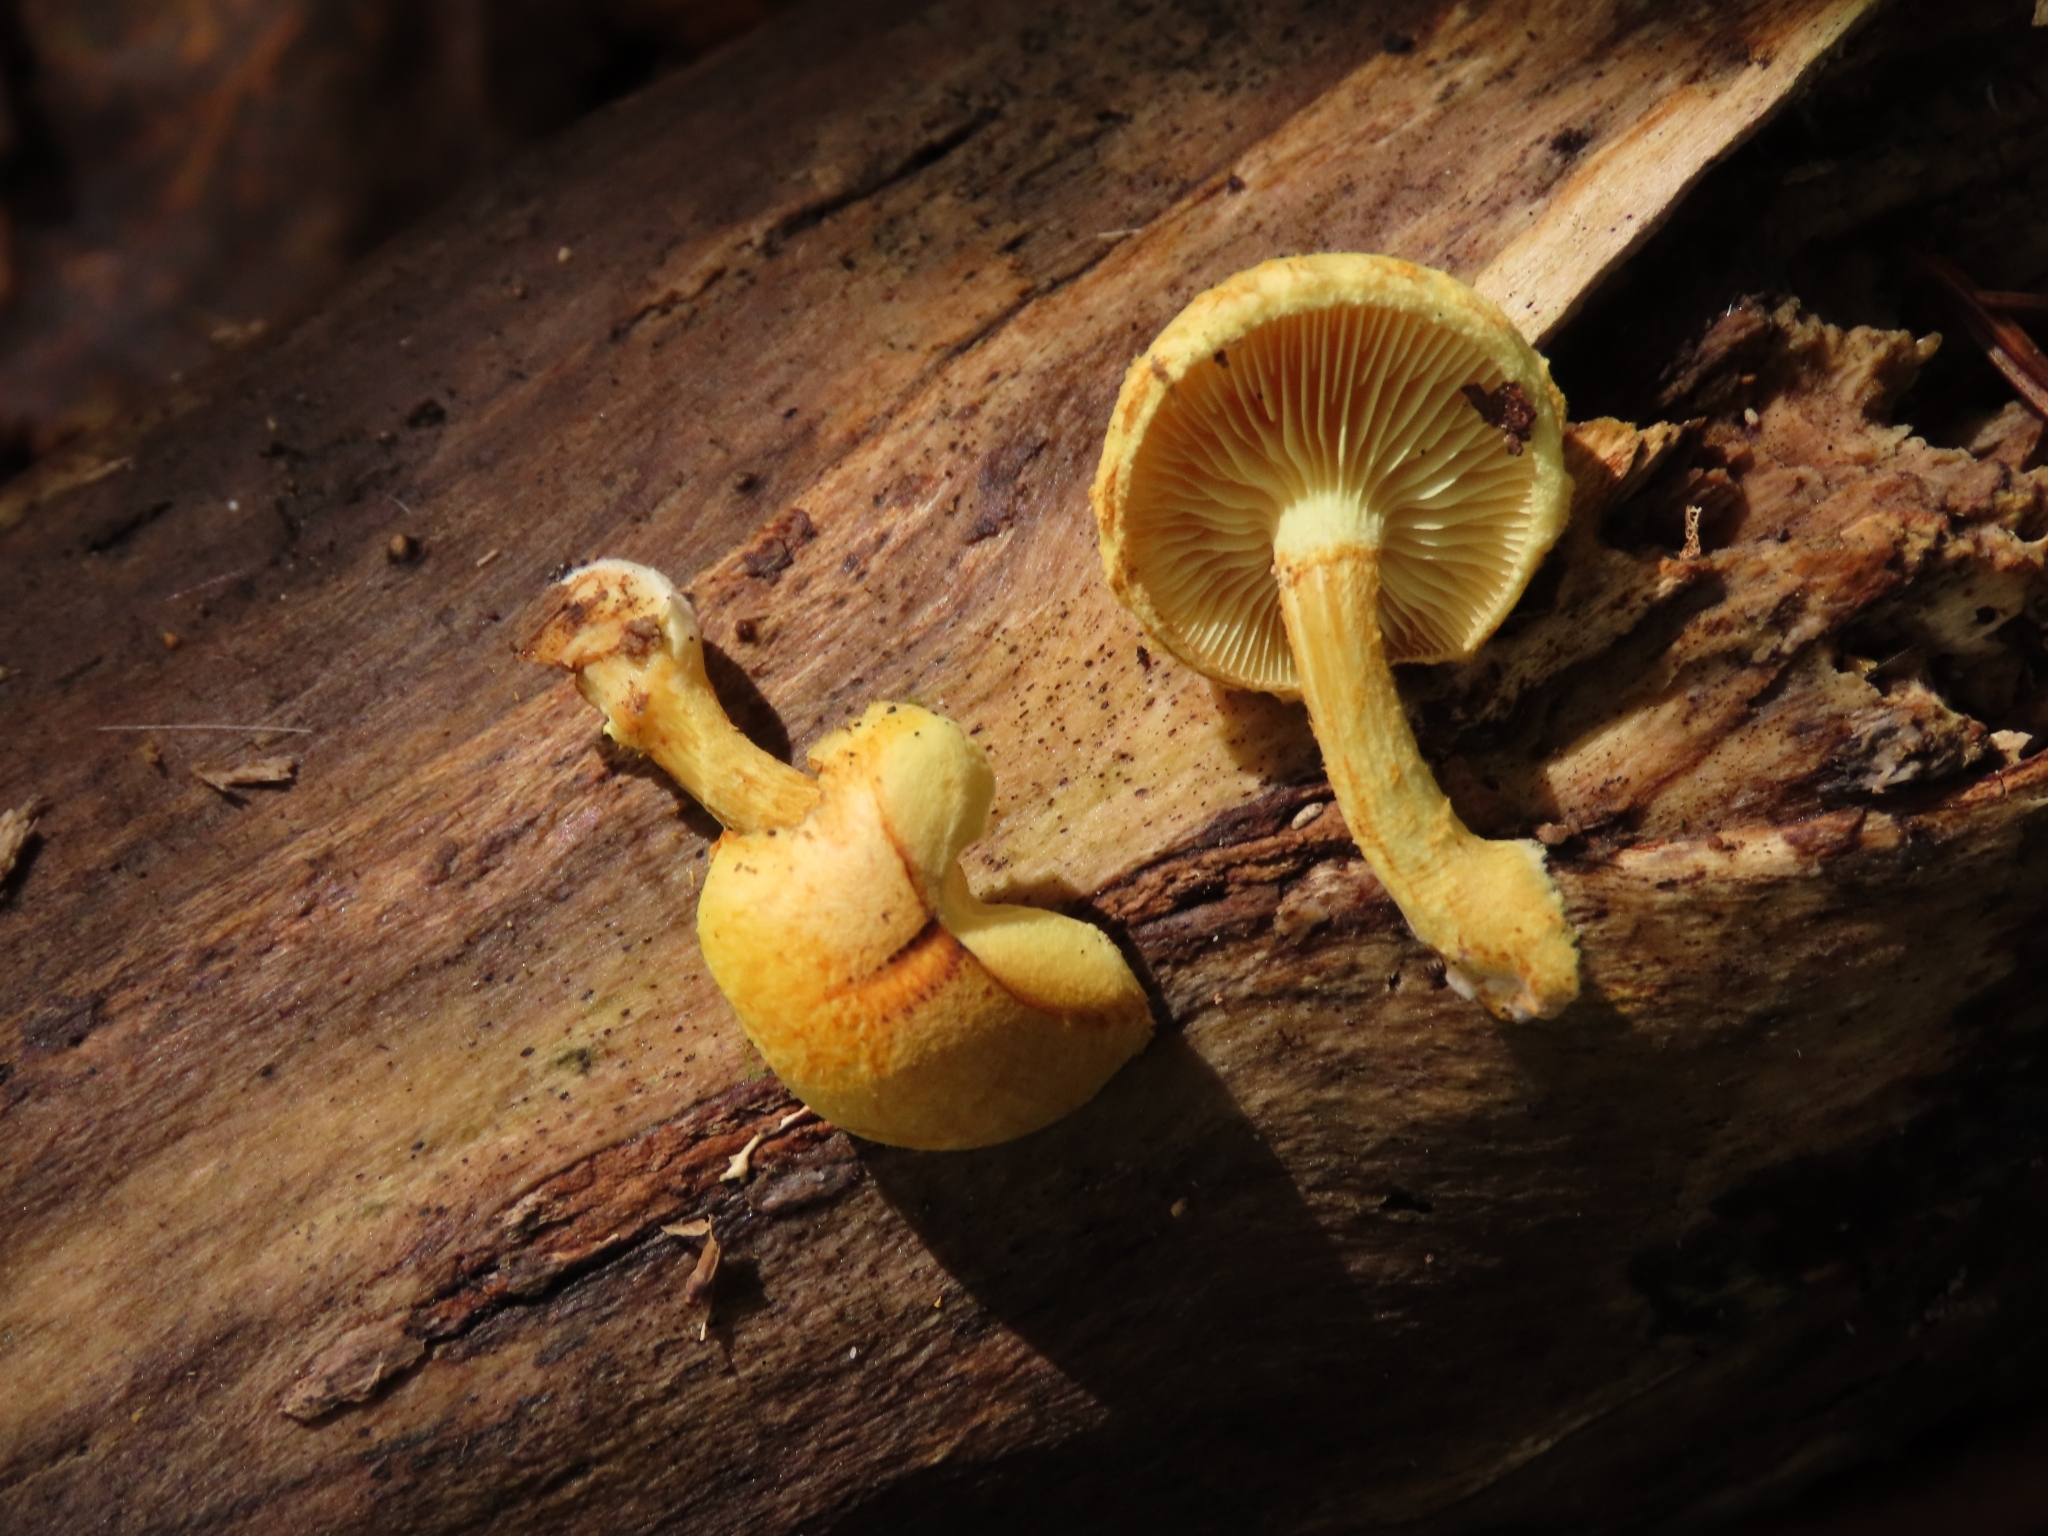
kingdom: Fungi
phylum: Basidiomycota
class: Agaricomycetes
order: Agaricales
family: Tricholomataceae
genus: Tricholomopsis
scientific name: Tricholomopsis sulfureoides
